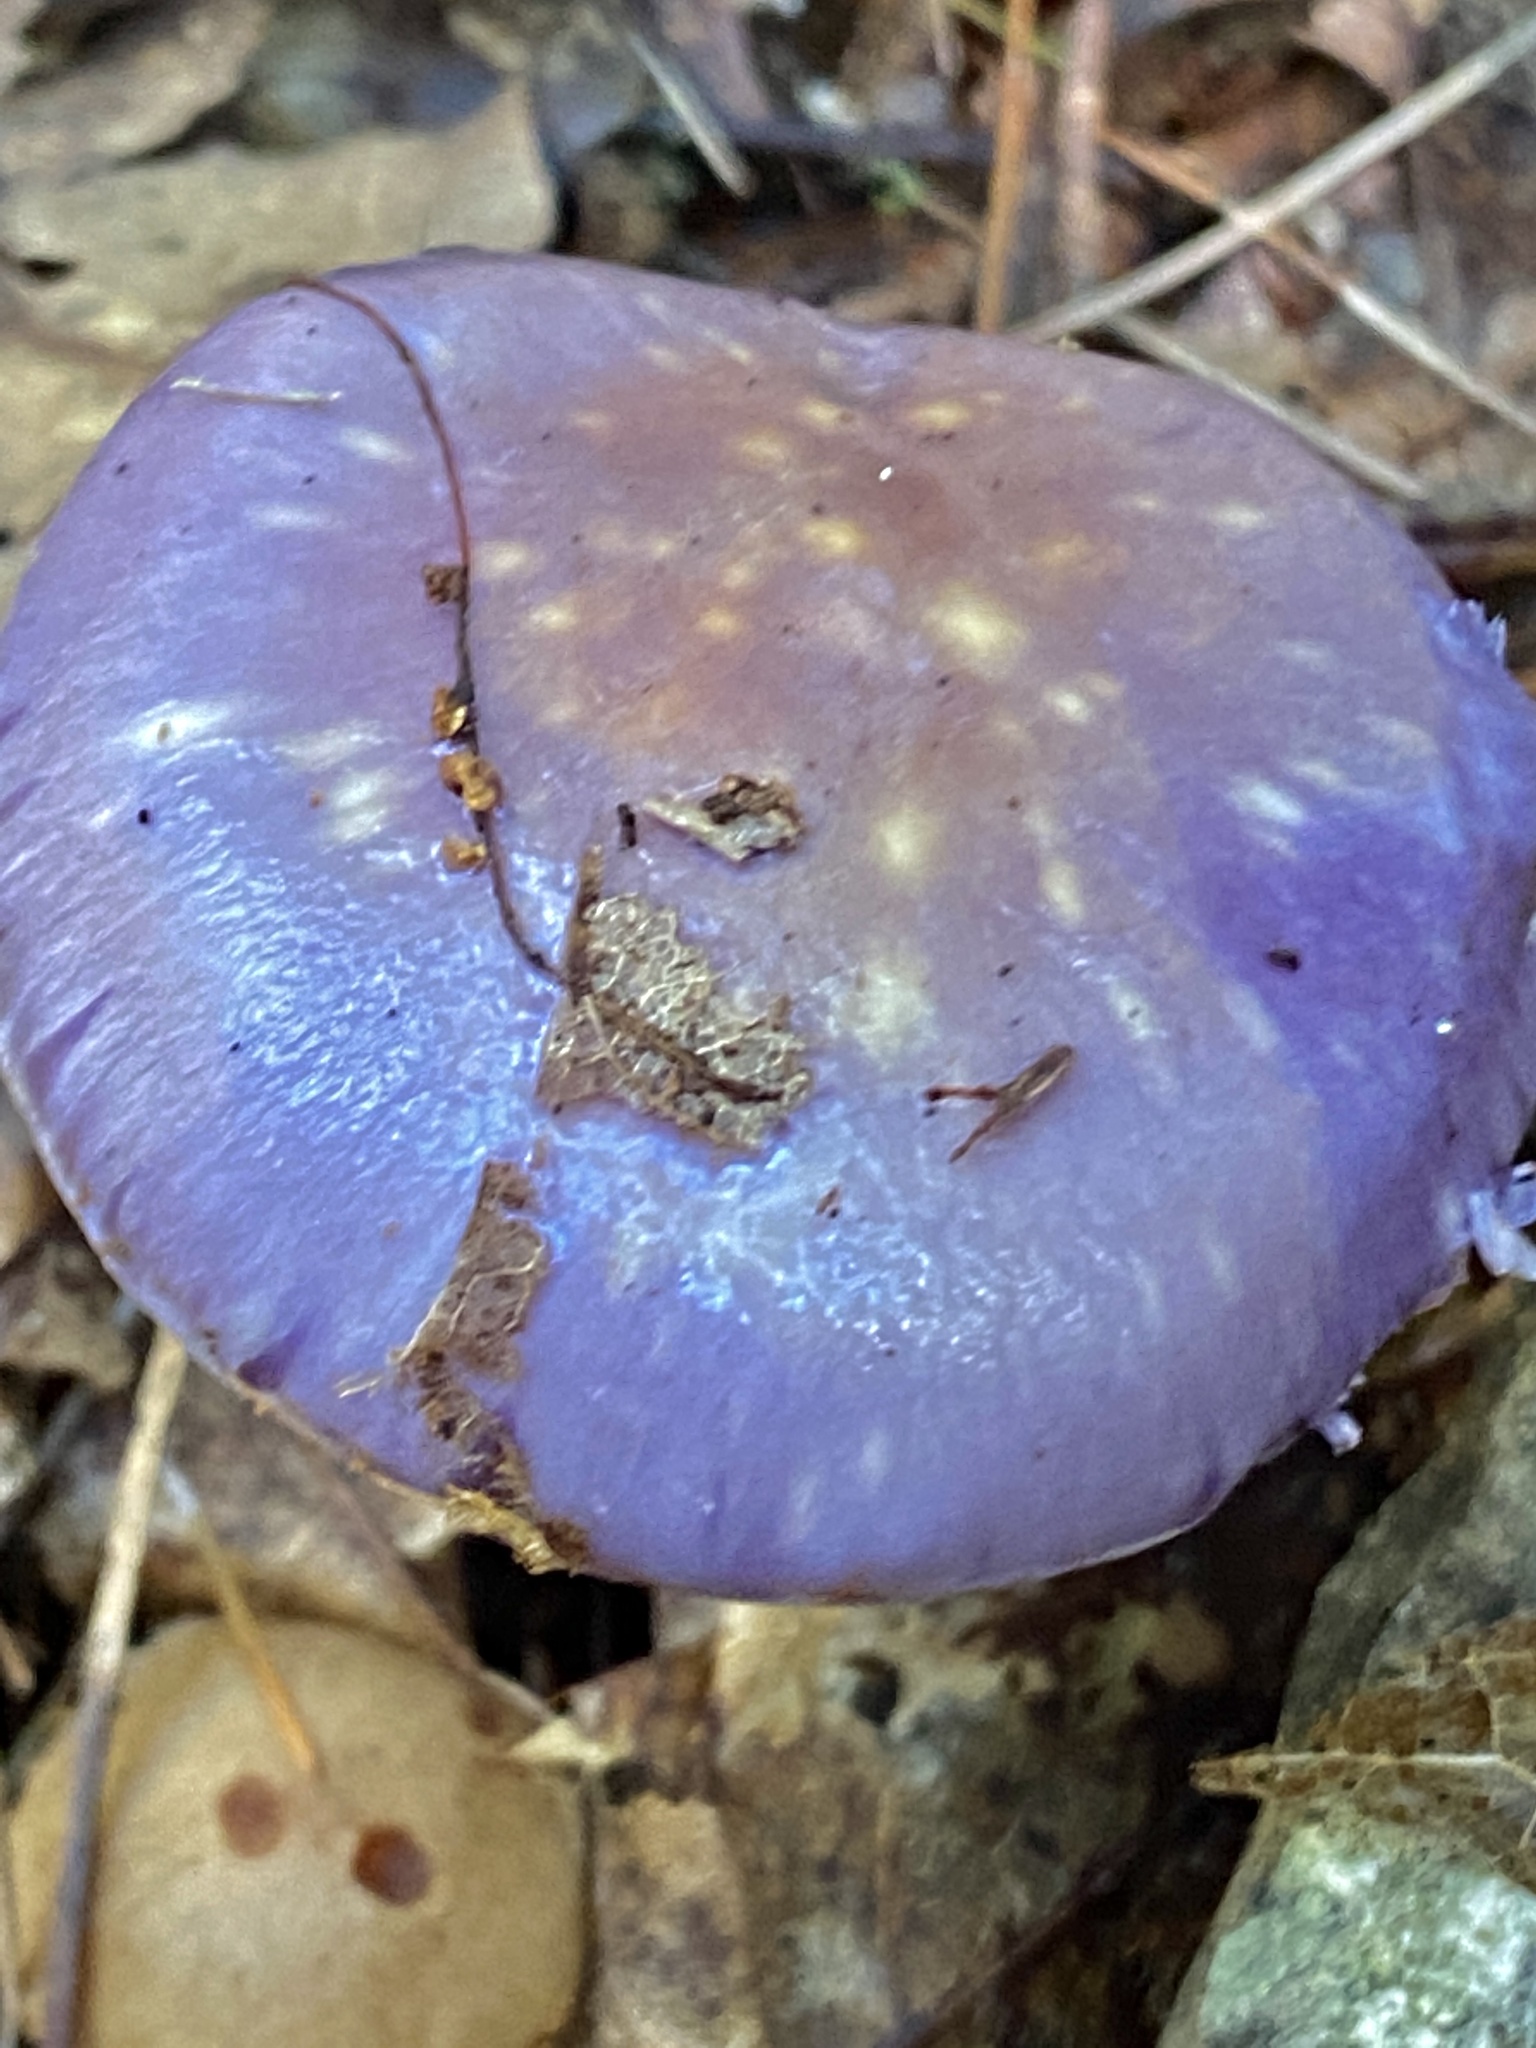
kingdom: Fungi
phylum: Basidiomycota
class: Agaricomycetes
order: Agaricales
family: Cortinariaceae
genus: Cortinarius
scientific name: Cortinarius iodes
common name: Viscid violet cort
